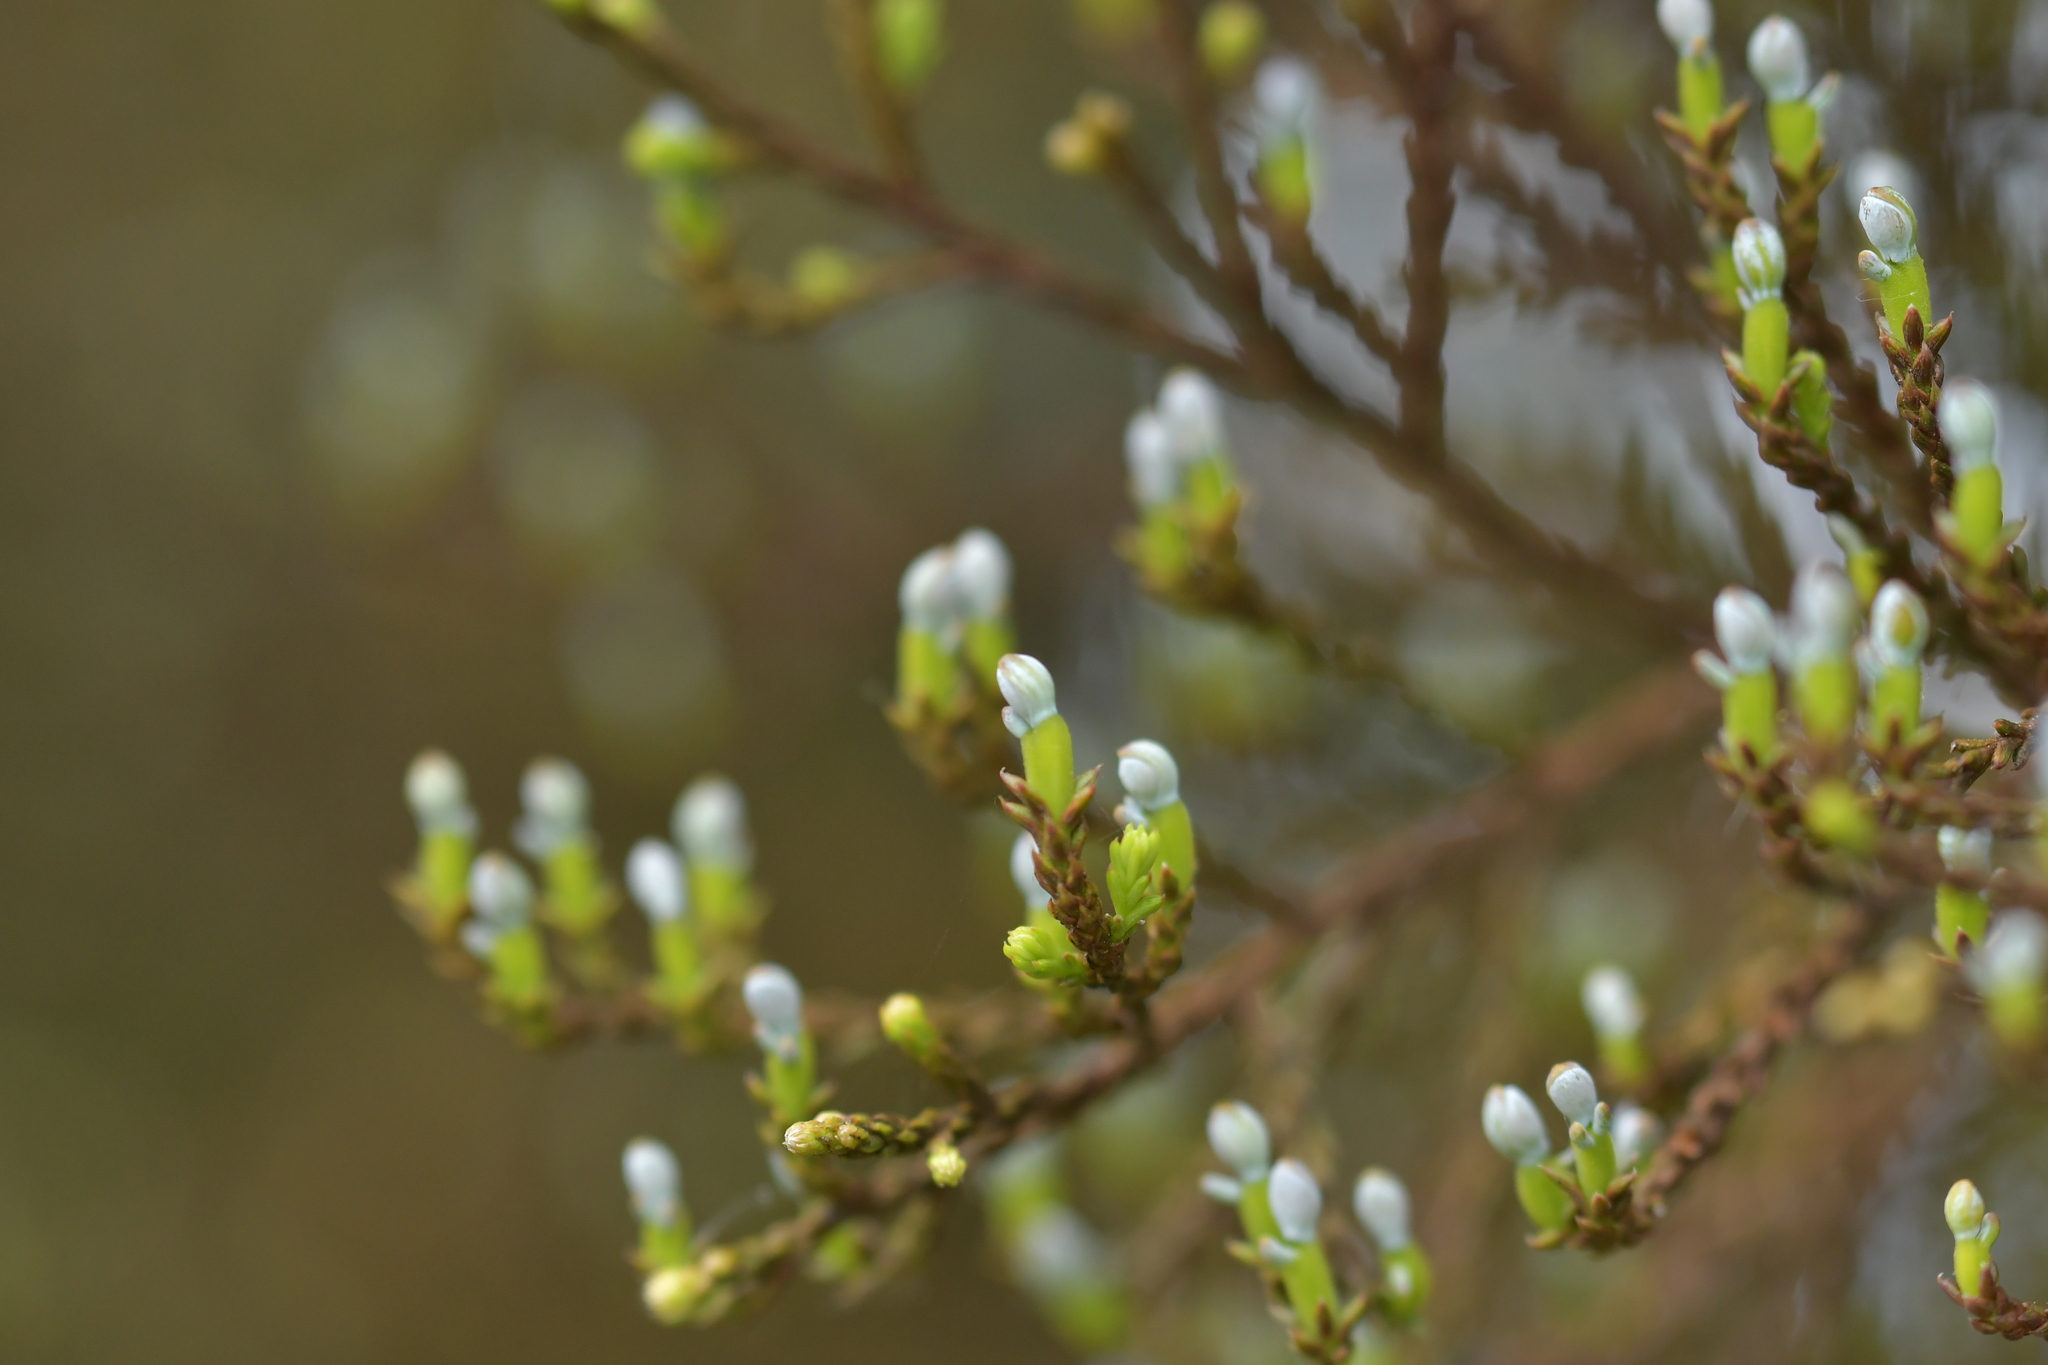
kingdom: Plantae
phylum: Tracheophyta
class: Pinopsida
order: Pinales
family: Podocarpaceae
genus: Dacrycarpus
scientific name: Dacrycarpus dacrydioides
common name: White pine
